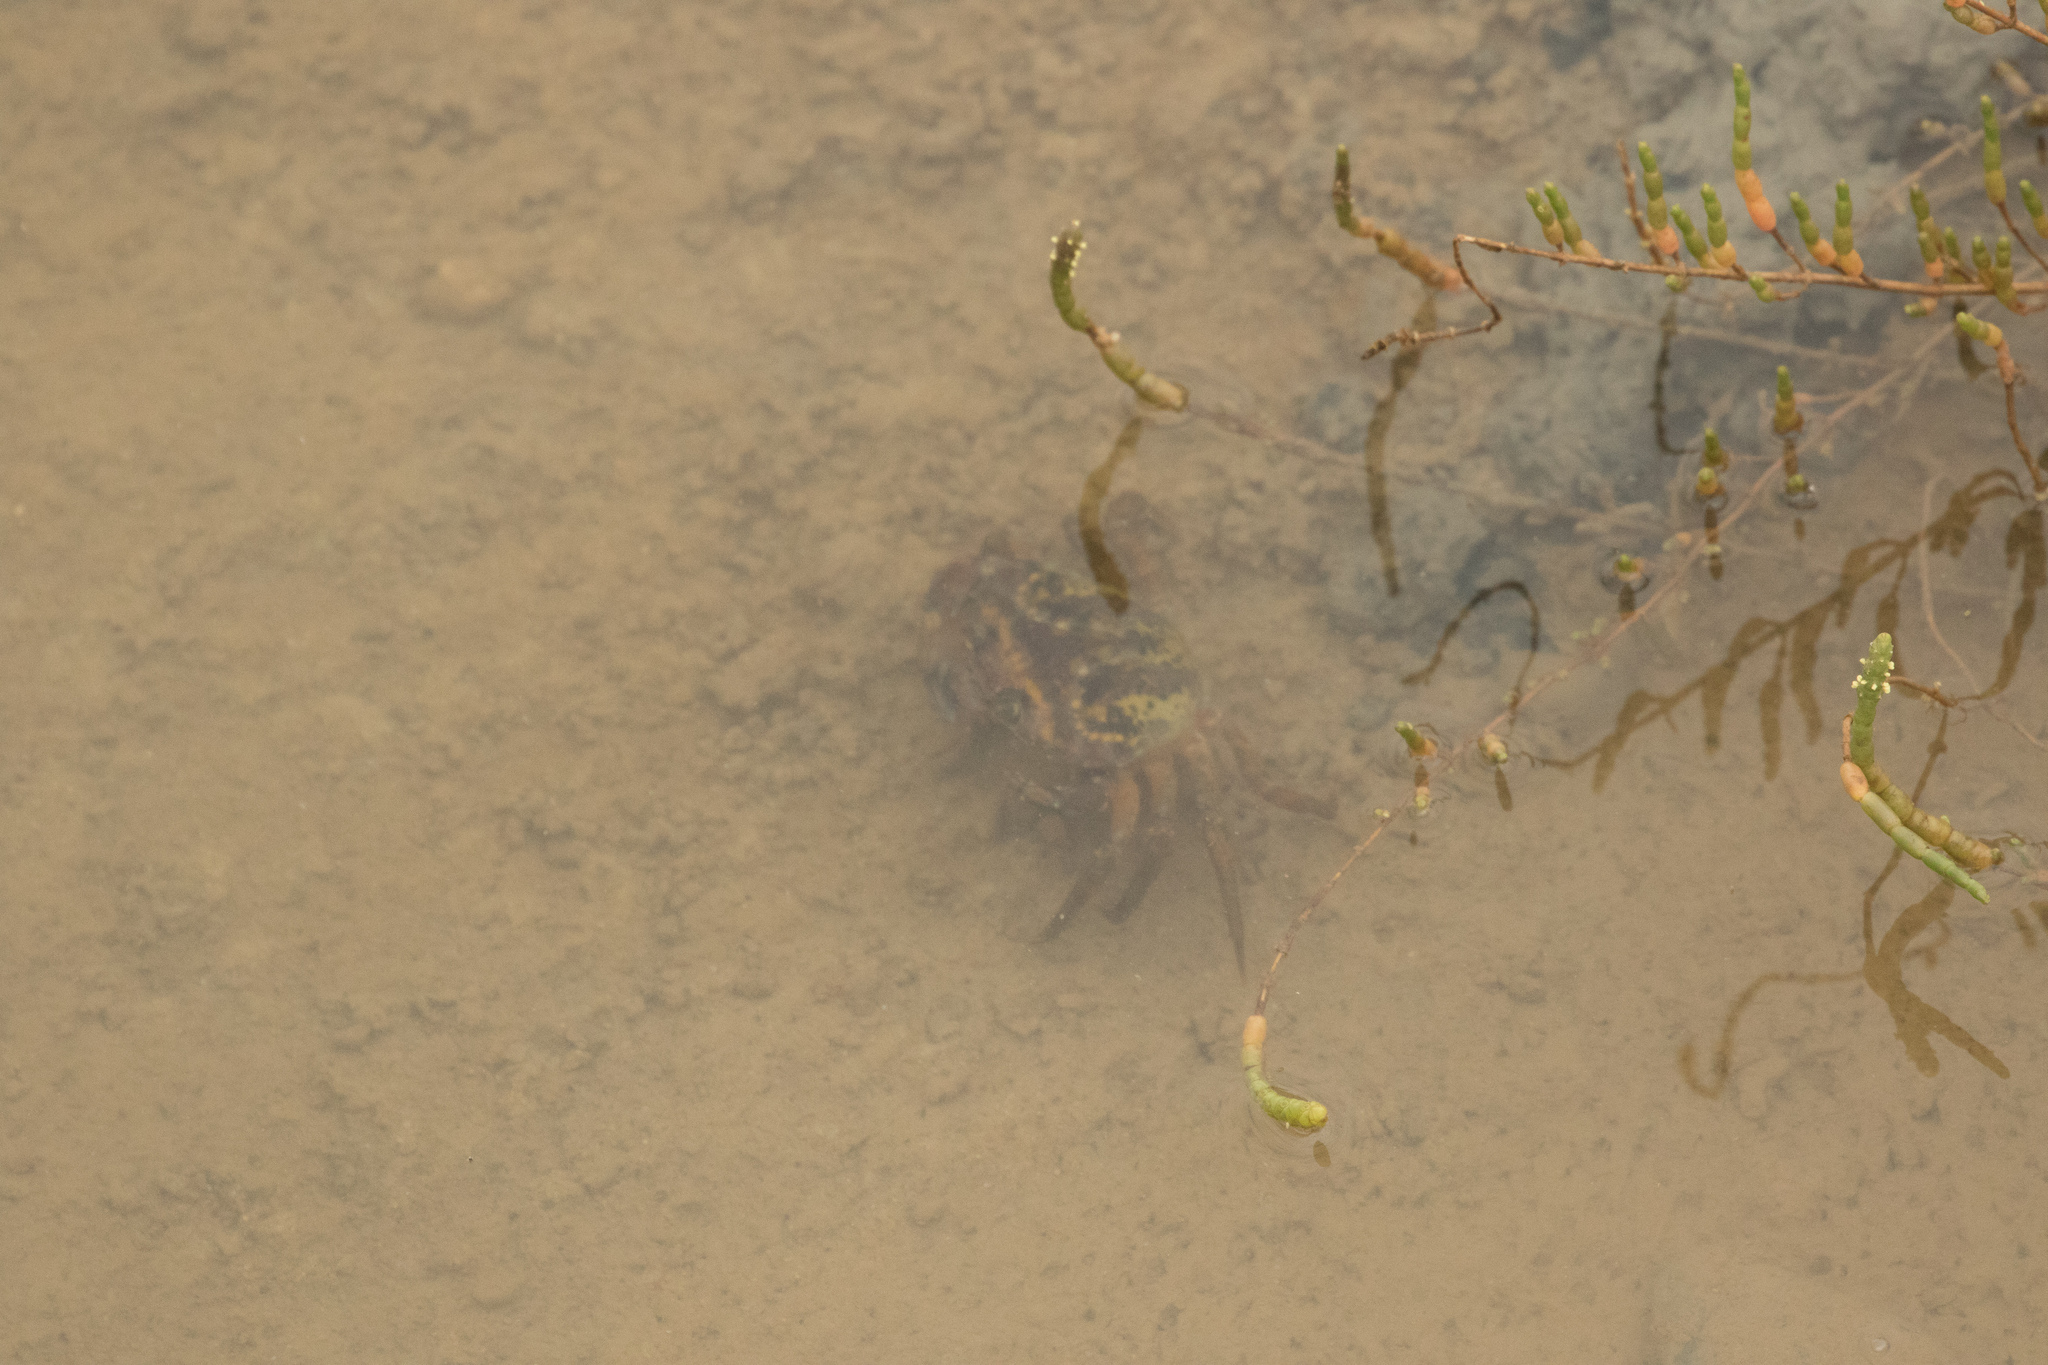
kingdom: Animalia
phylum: Arthropoda
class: Malacostraca
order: Decapoda
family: Carcinidae
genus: Carcinus
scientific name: Carcinus maenas
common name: European green crab
